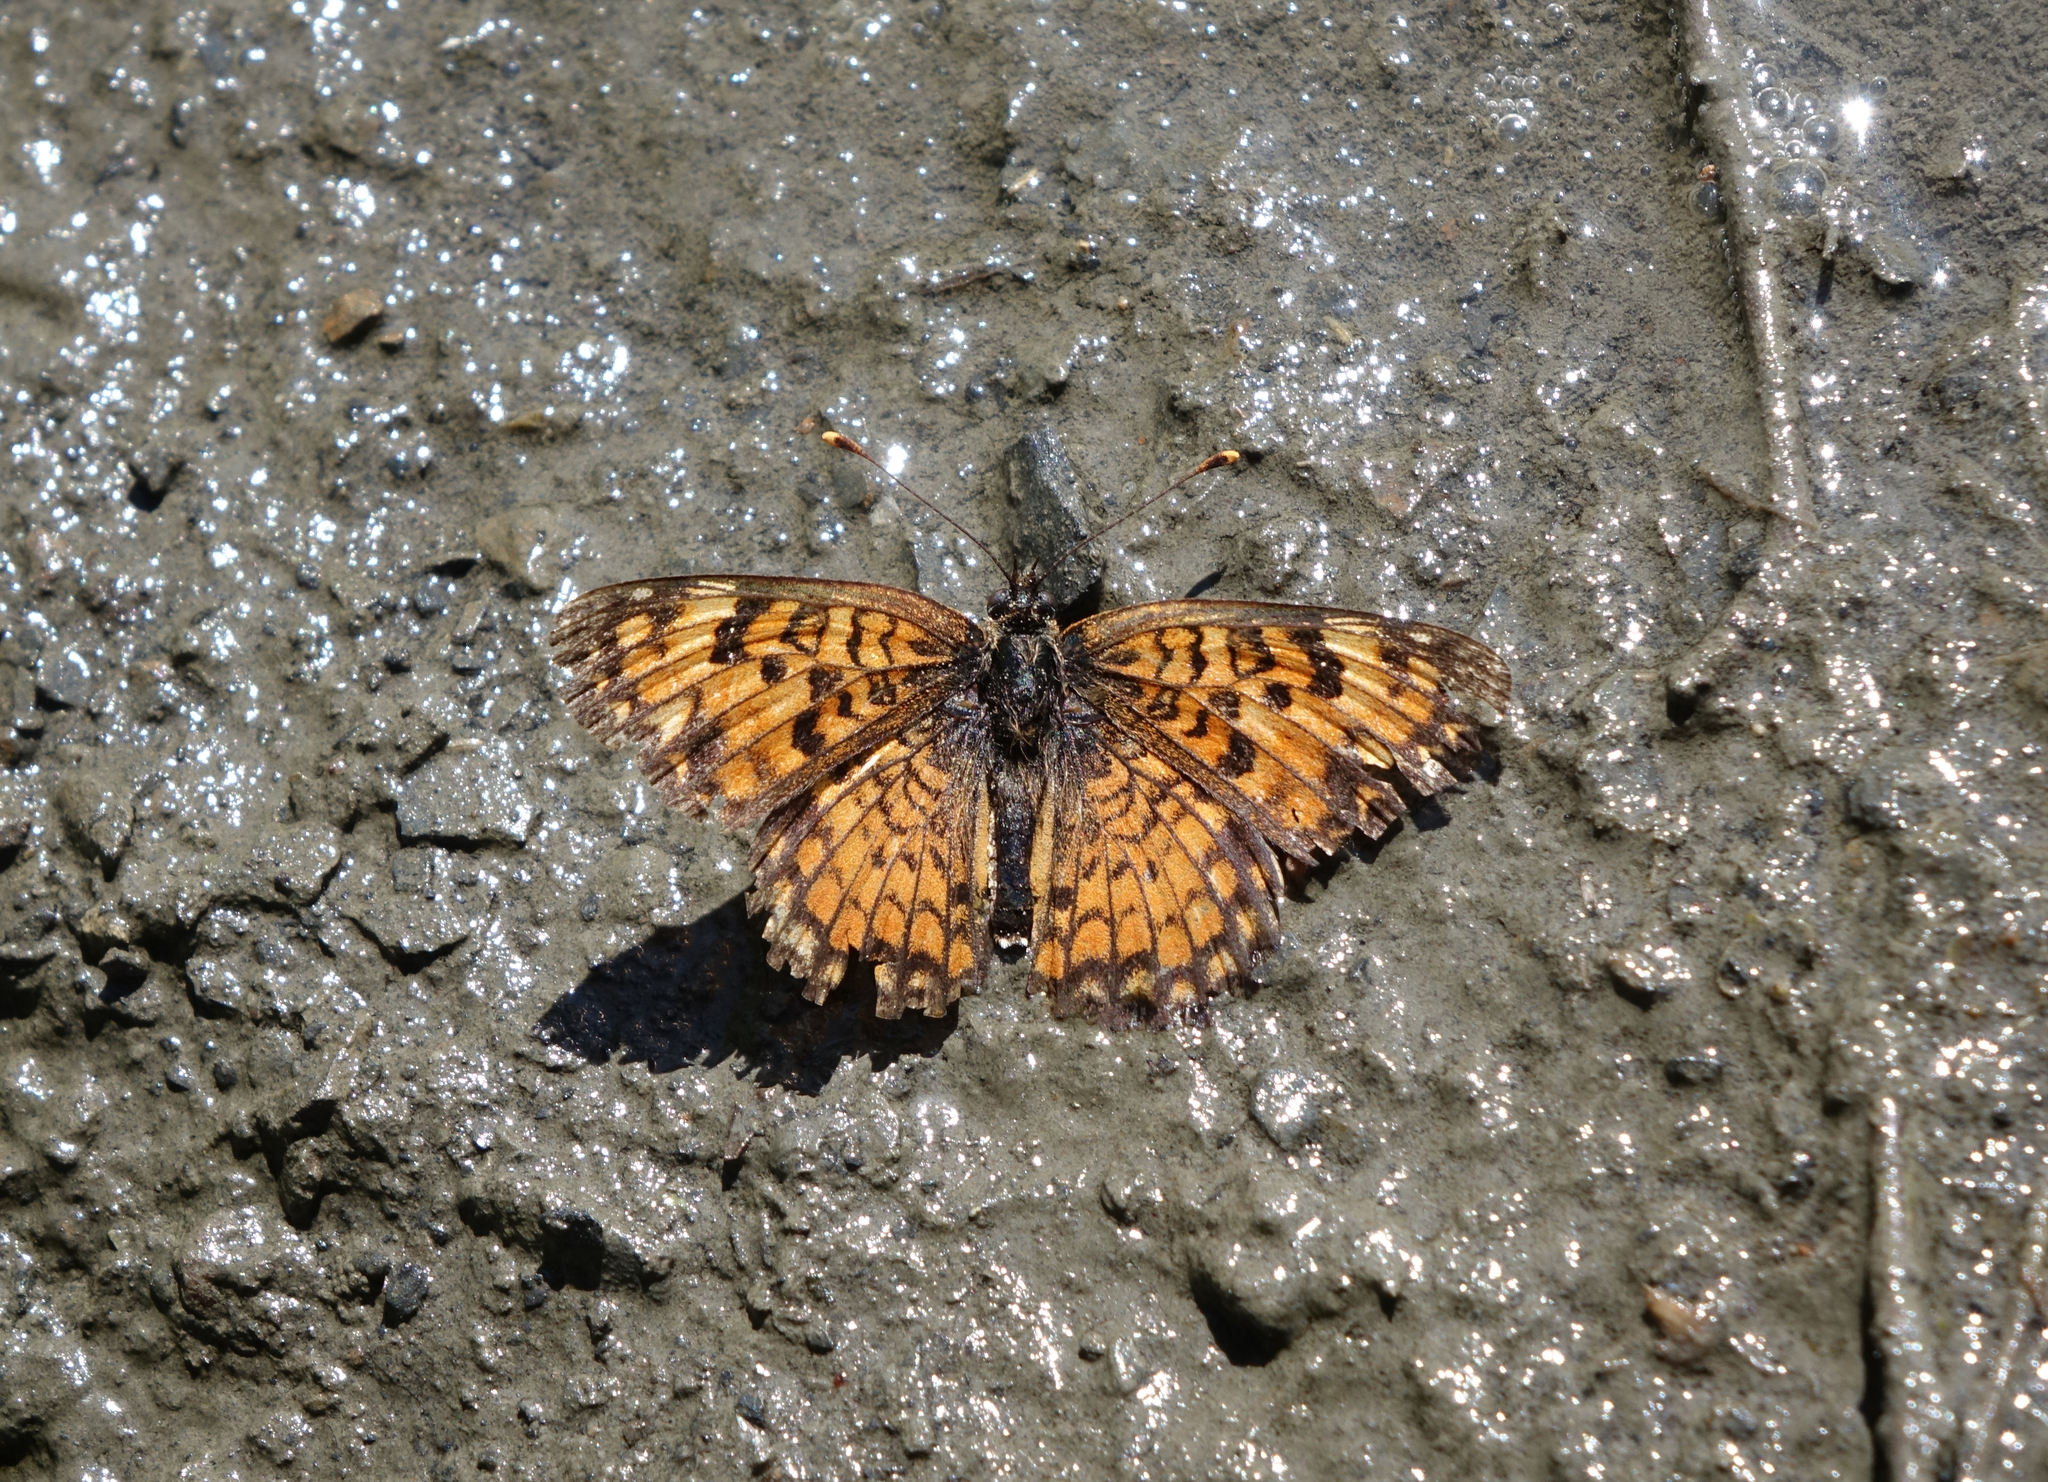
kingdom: Animalia
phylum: Arthropoda
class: Insecta
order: Lepidoptera
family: Nymphalidae
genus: Melitaea
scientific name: Melitaea phoebe
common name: Knapweed fritillary
